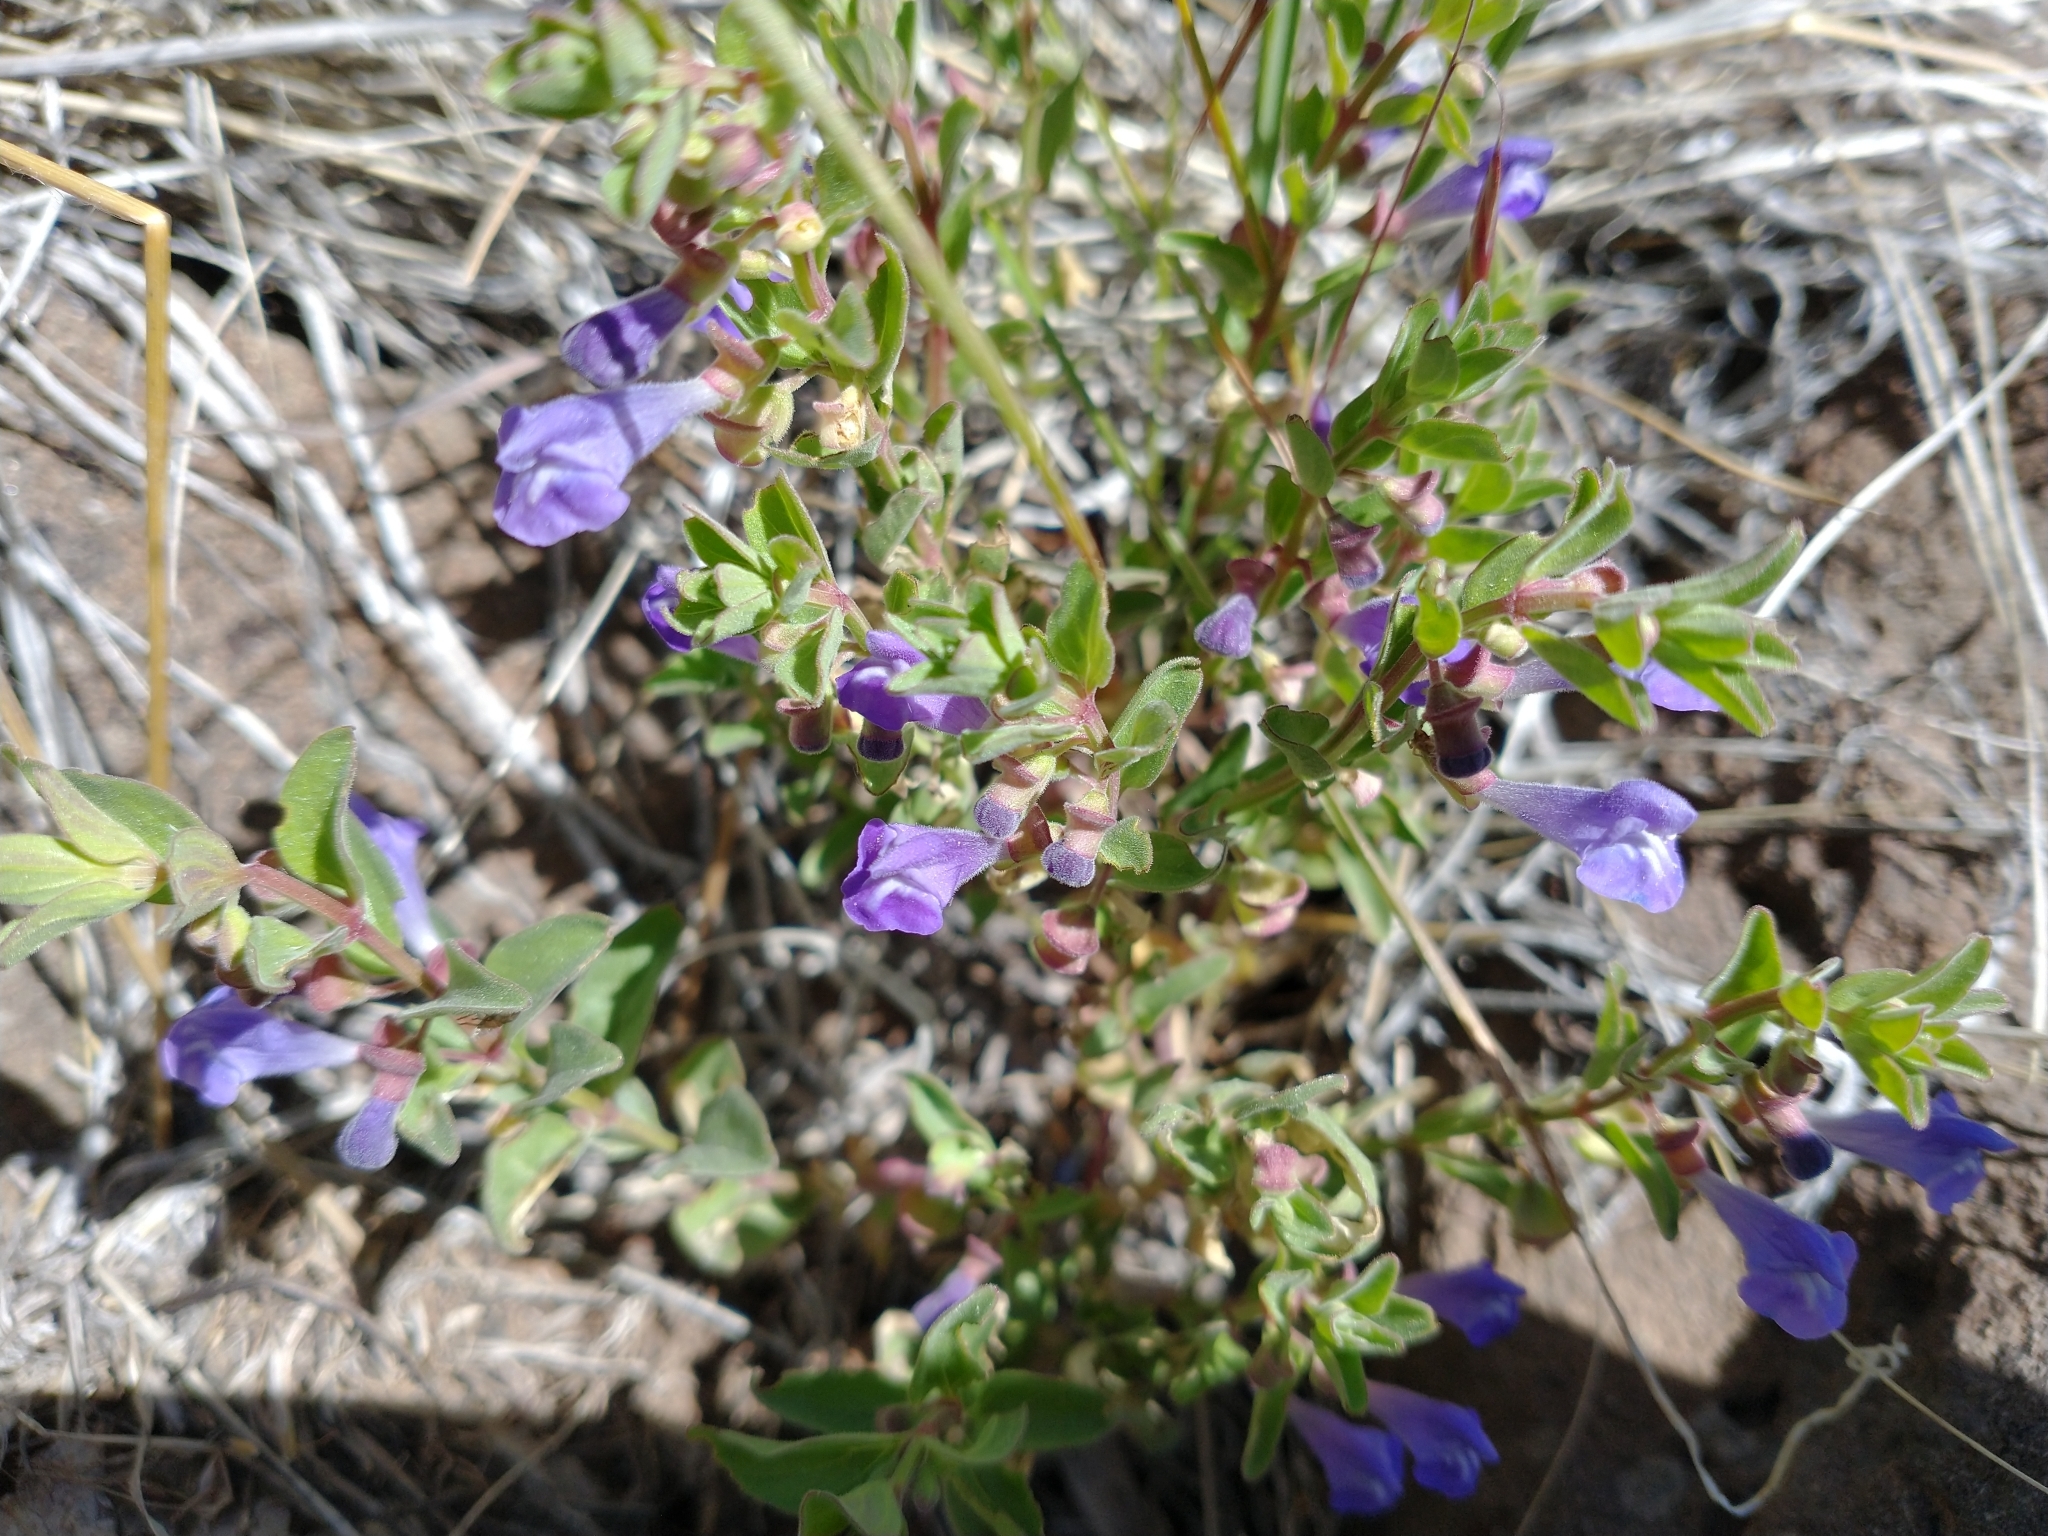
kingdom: Plantae
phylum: Tracheophyta
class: Magnoliopsida
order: Lamiales
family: Lamiaceae
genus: Scutellaria
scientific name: Scutellaria angustifolia
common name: Narrow-leaved skullcap
